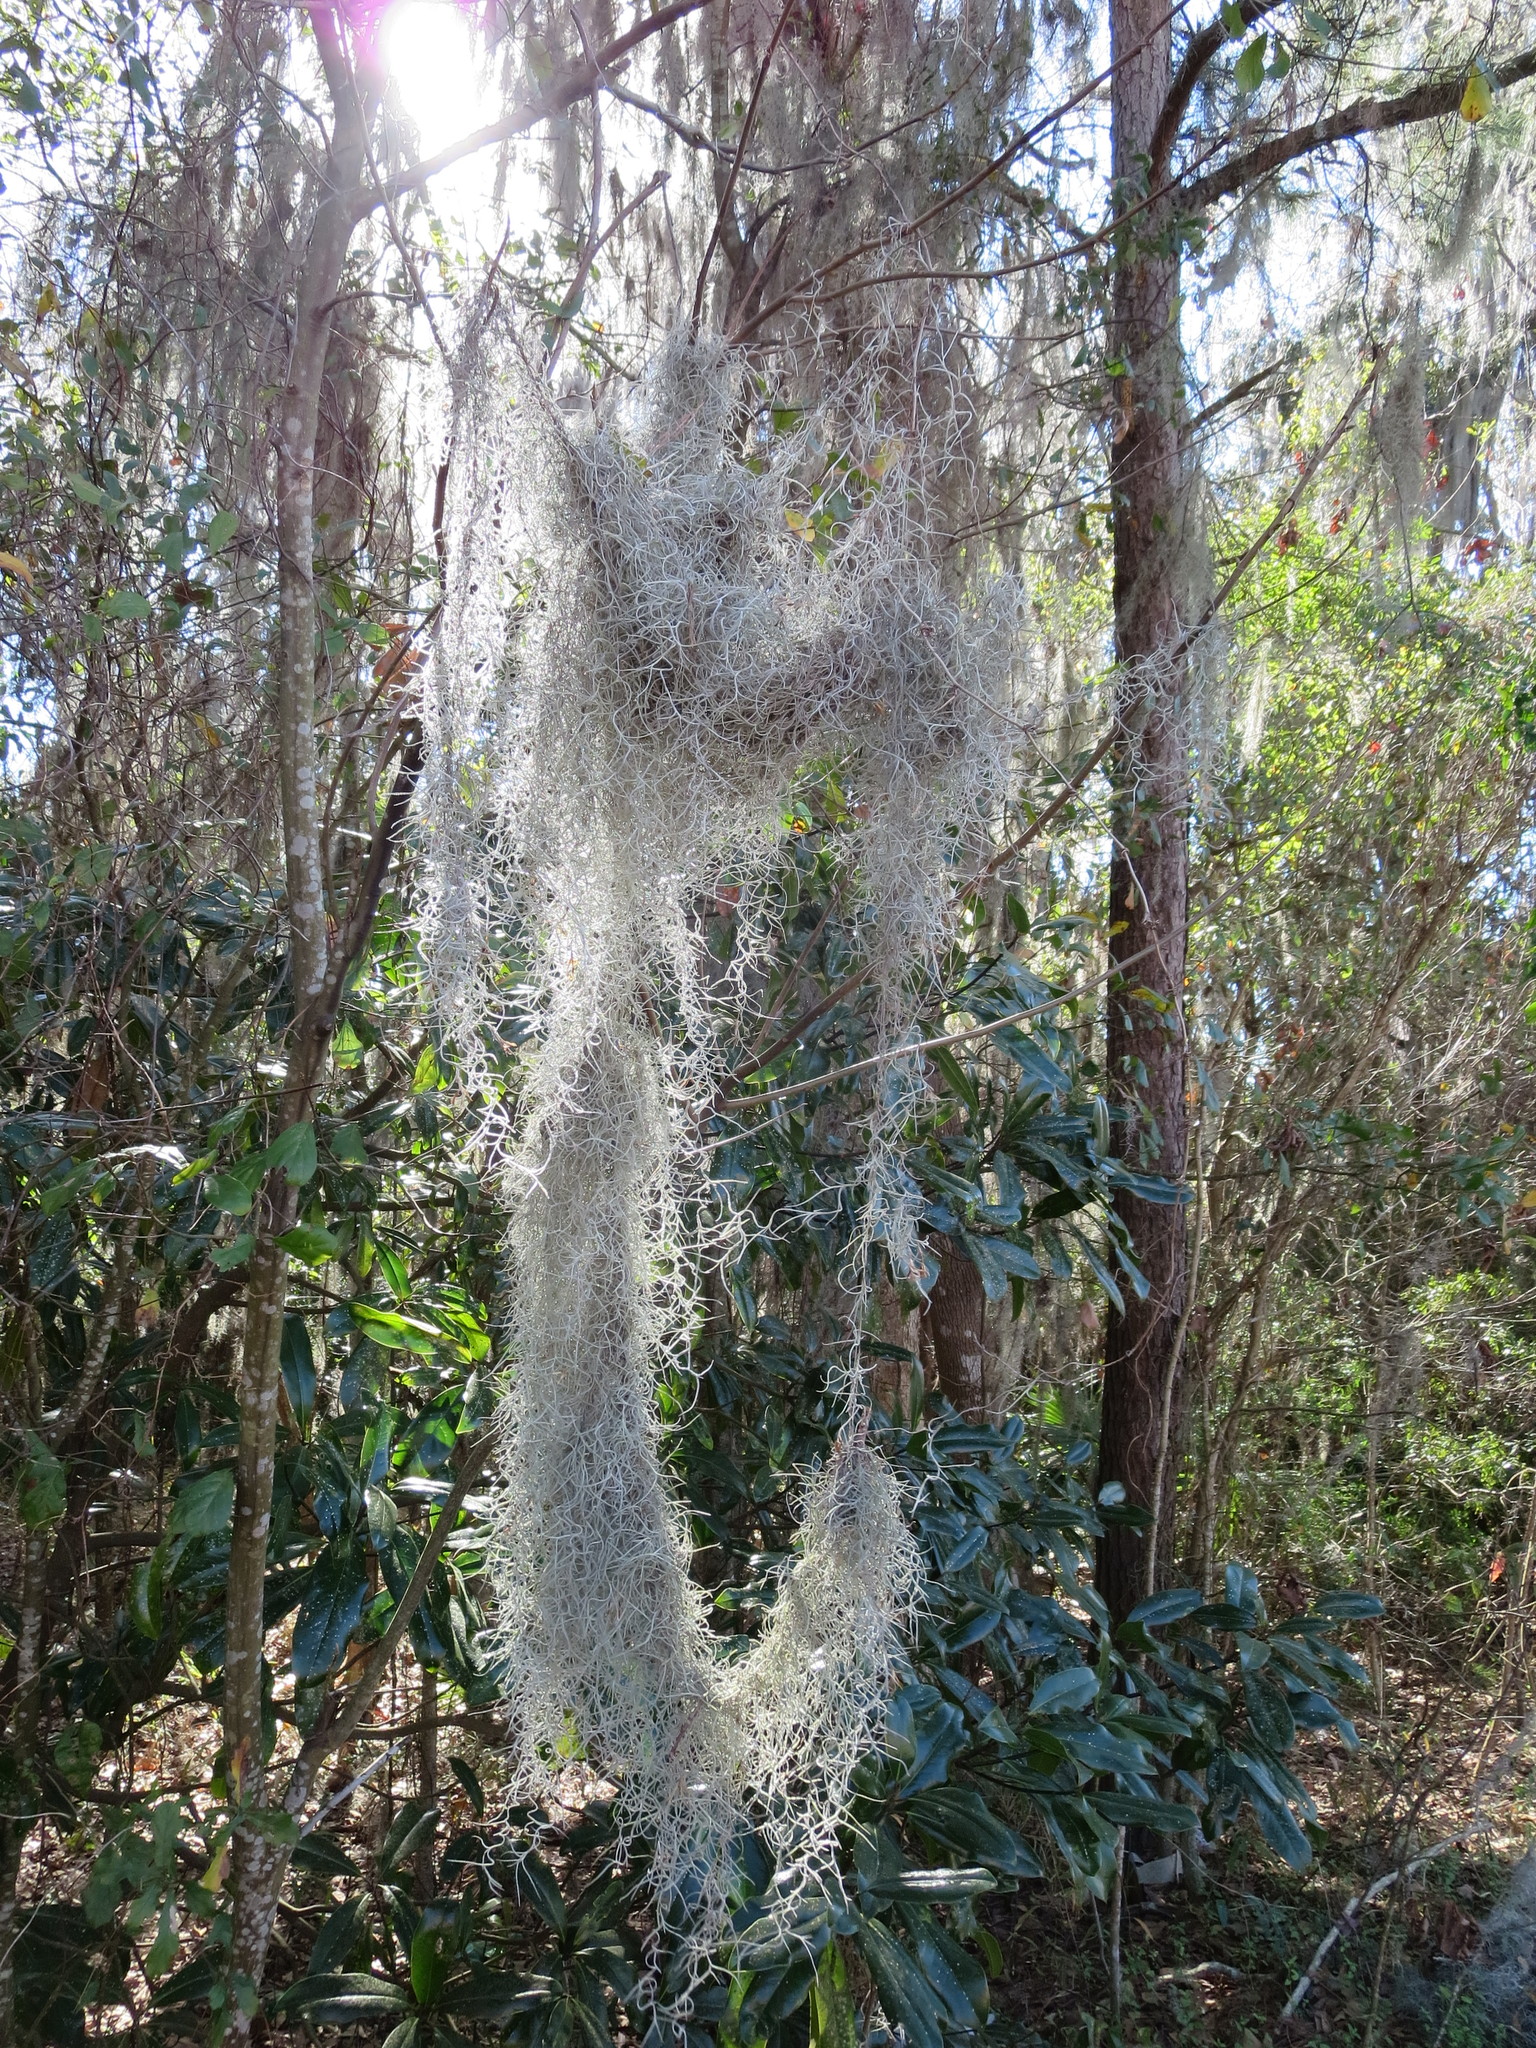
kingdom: Plantae
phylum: Tracheophyta
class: Liliopsida
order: Poales
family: Bromeliaceae
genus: Tillandsia
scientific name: Tillandsia usneoides
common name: Spanish moss
